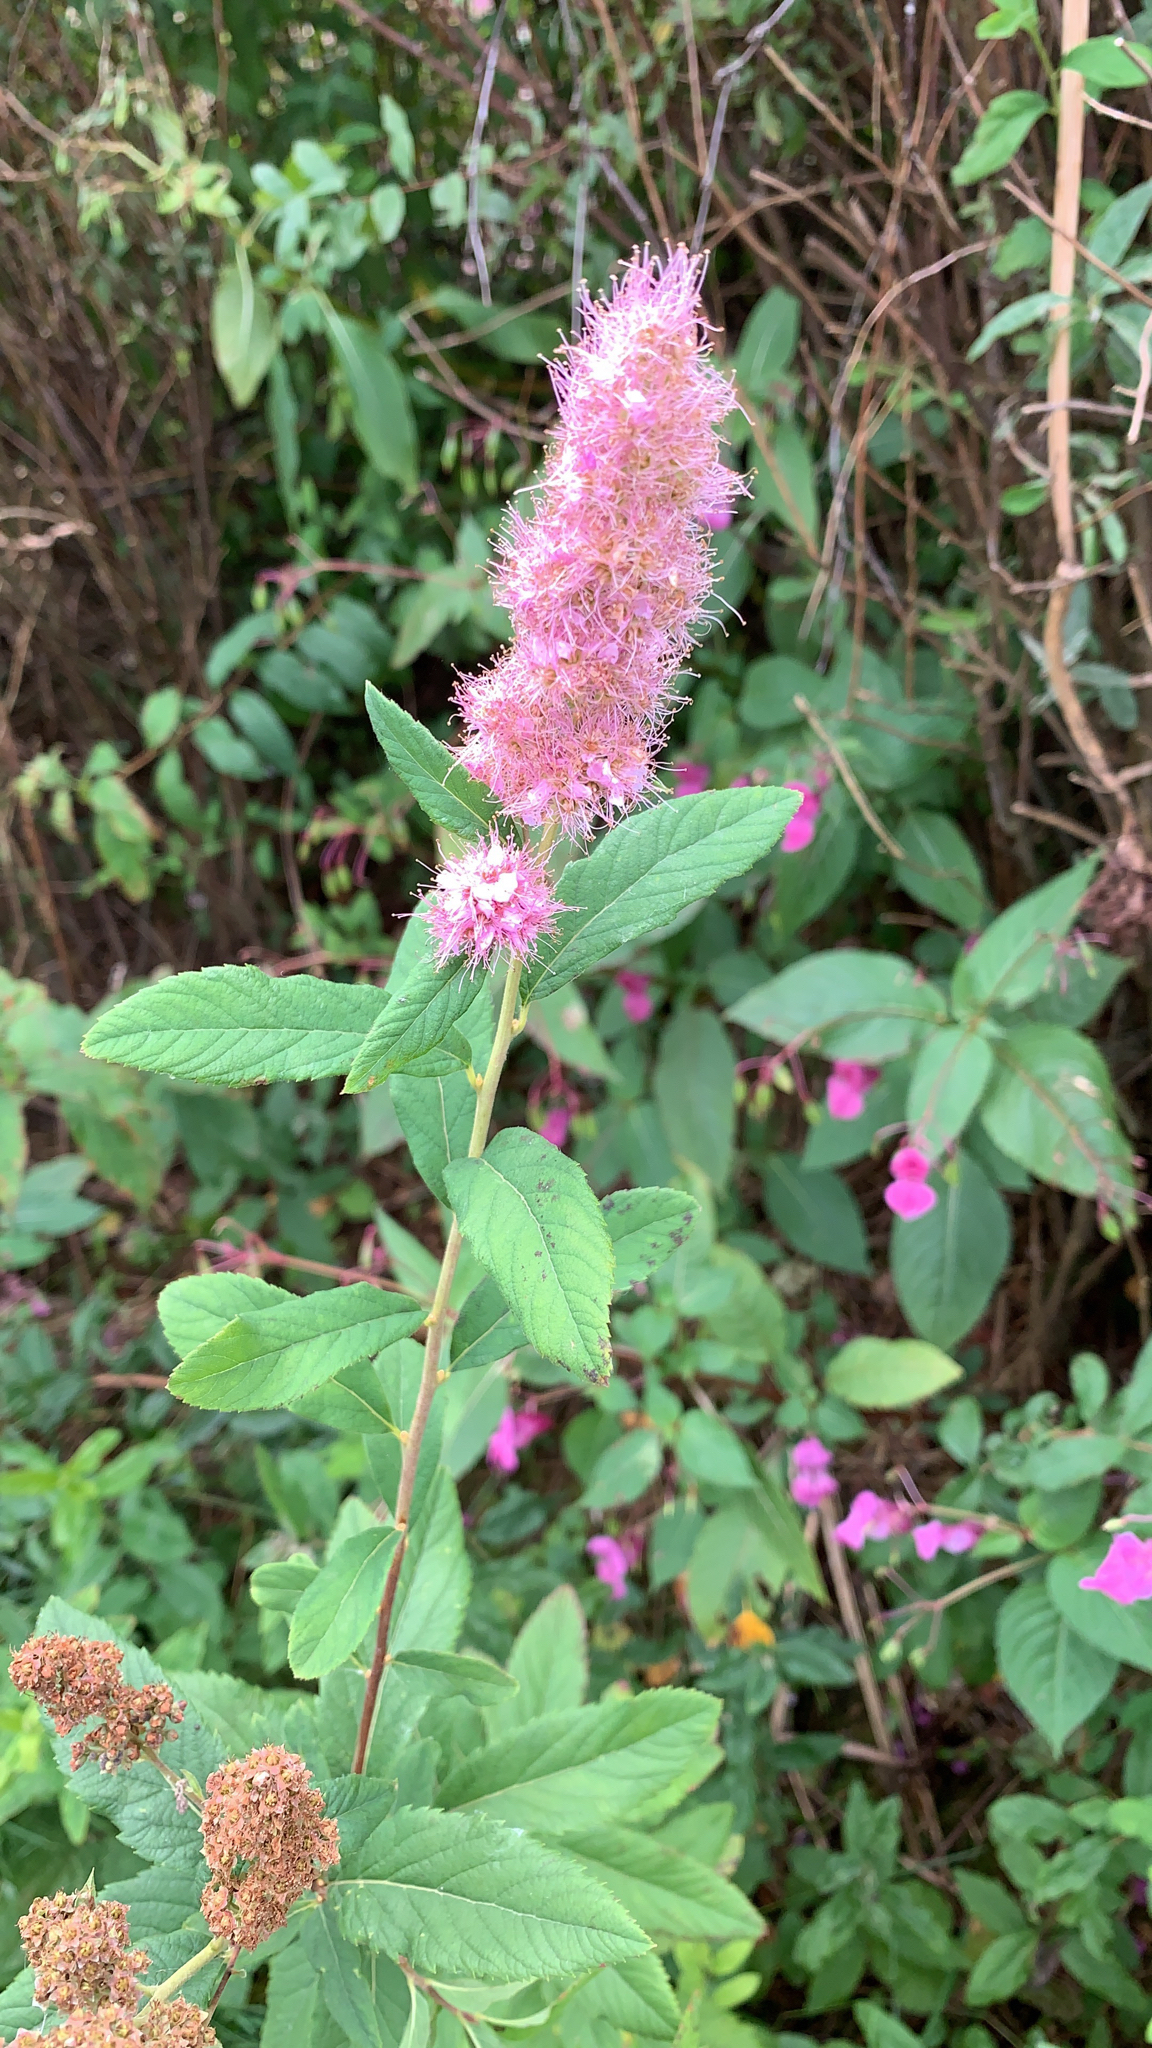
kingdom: Plantae
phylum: Tracheophyta
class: Magnoliopsida
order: Rosales
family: Rosaceae
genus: Spiraea
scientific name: Spiraea douglasii
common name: Steeplebush
